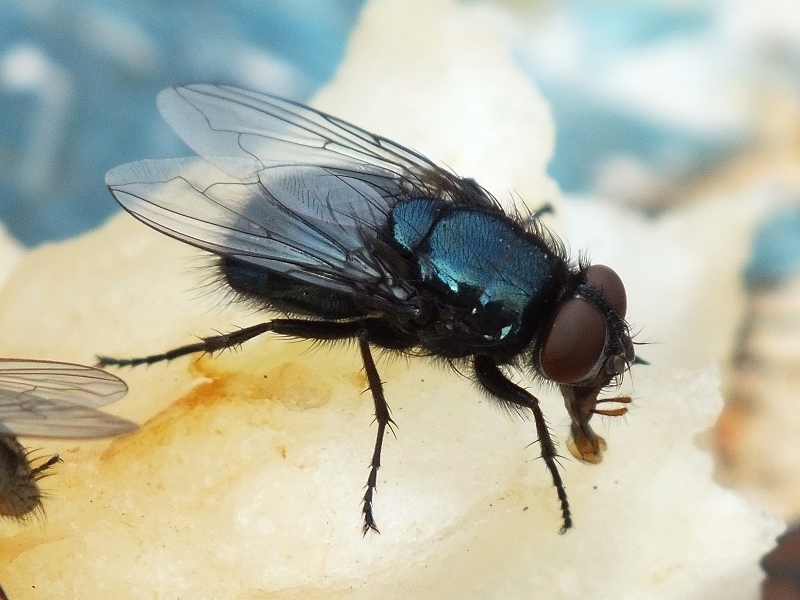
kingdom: Animalia
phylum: Arthropoda
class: Insecta
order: Diptera
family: Calliphoridae
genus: Protophormia
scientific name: Protophormia terraenovae
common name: Blackbottle
